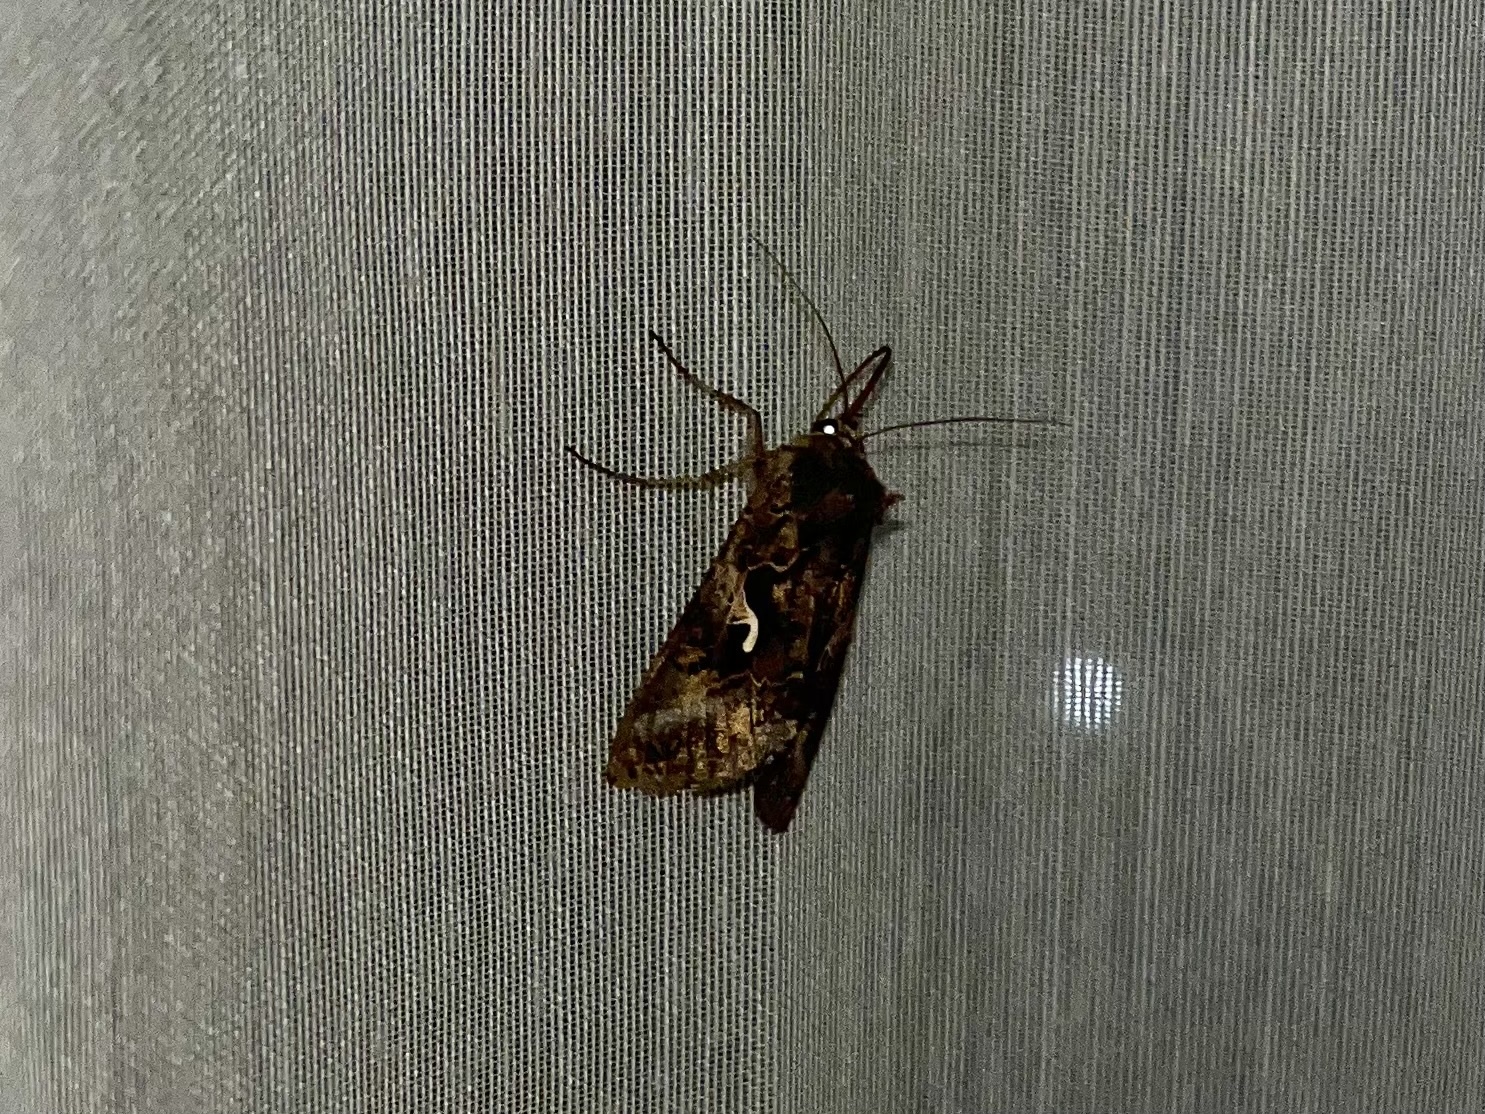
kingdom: Animalia
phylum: Arthropoda
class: Insecta
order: Lepidoptera
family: Noctuidae
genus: Autographa
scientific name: Autographa gamma
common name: Silver y
